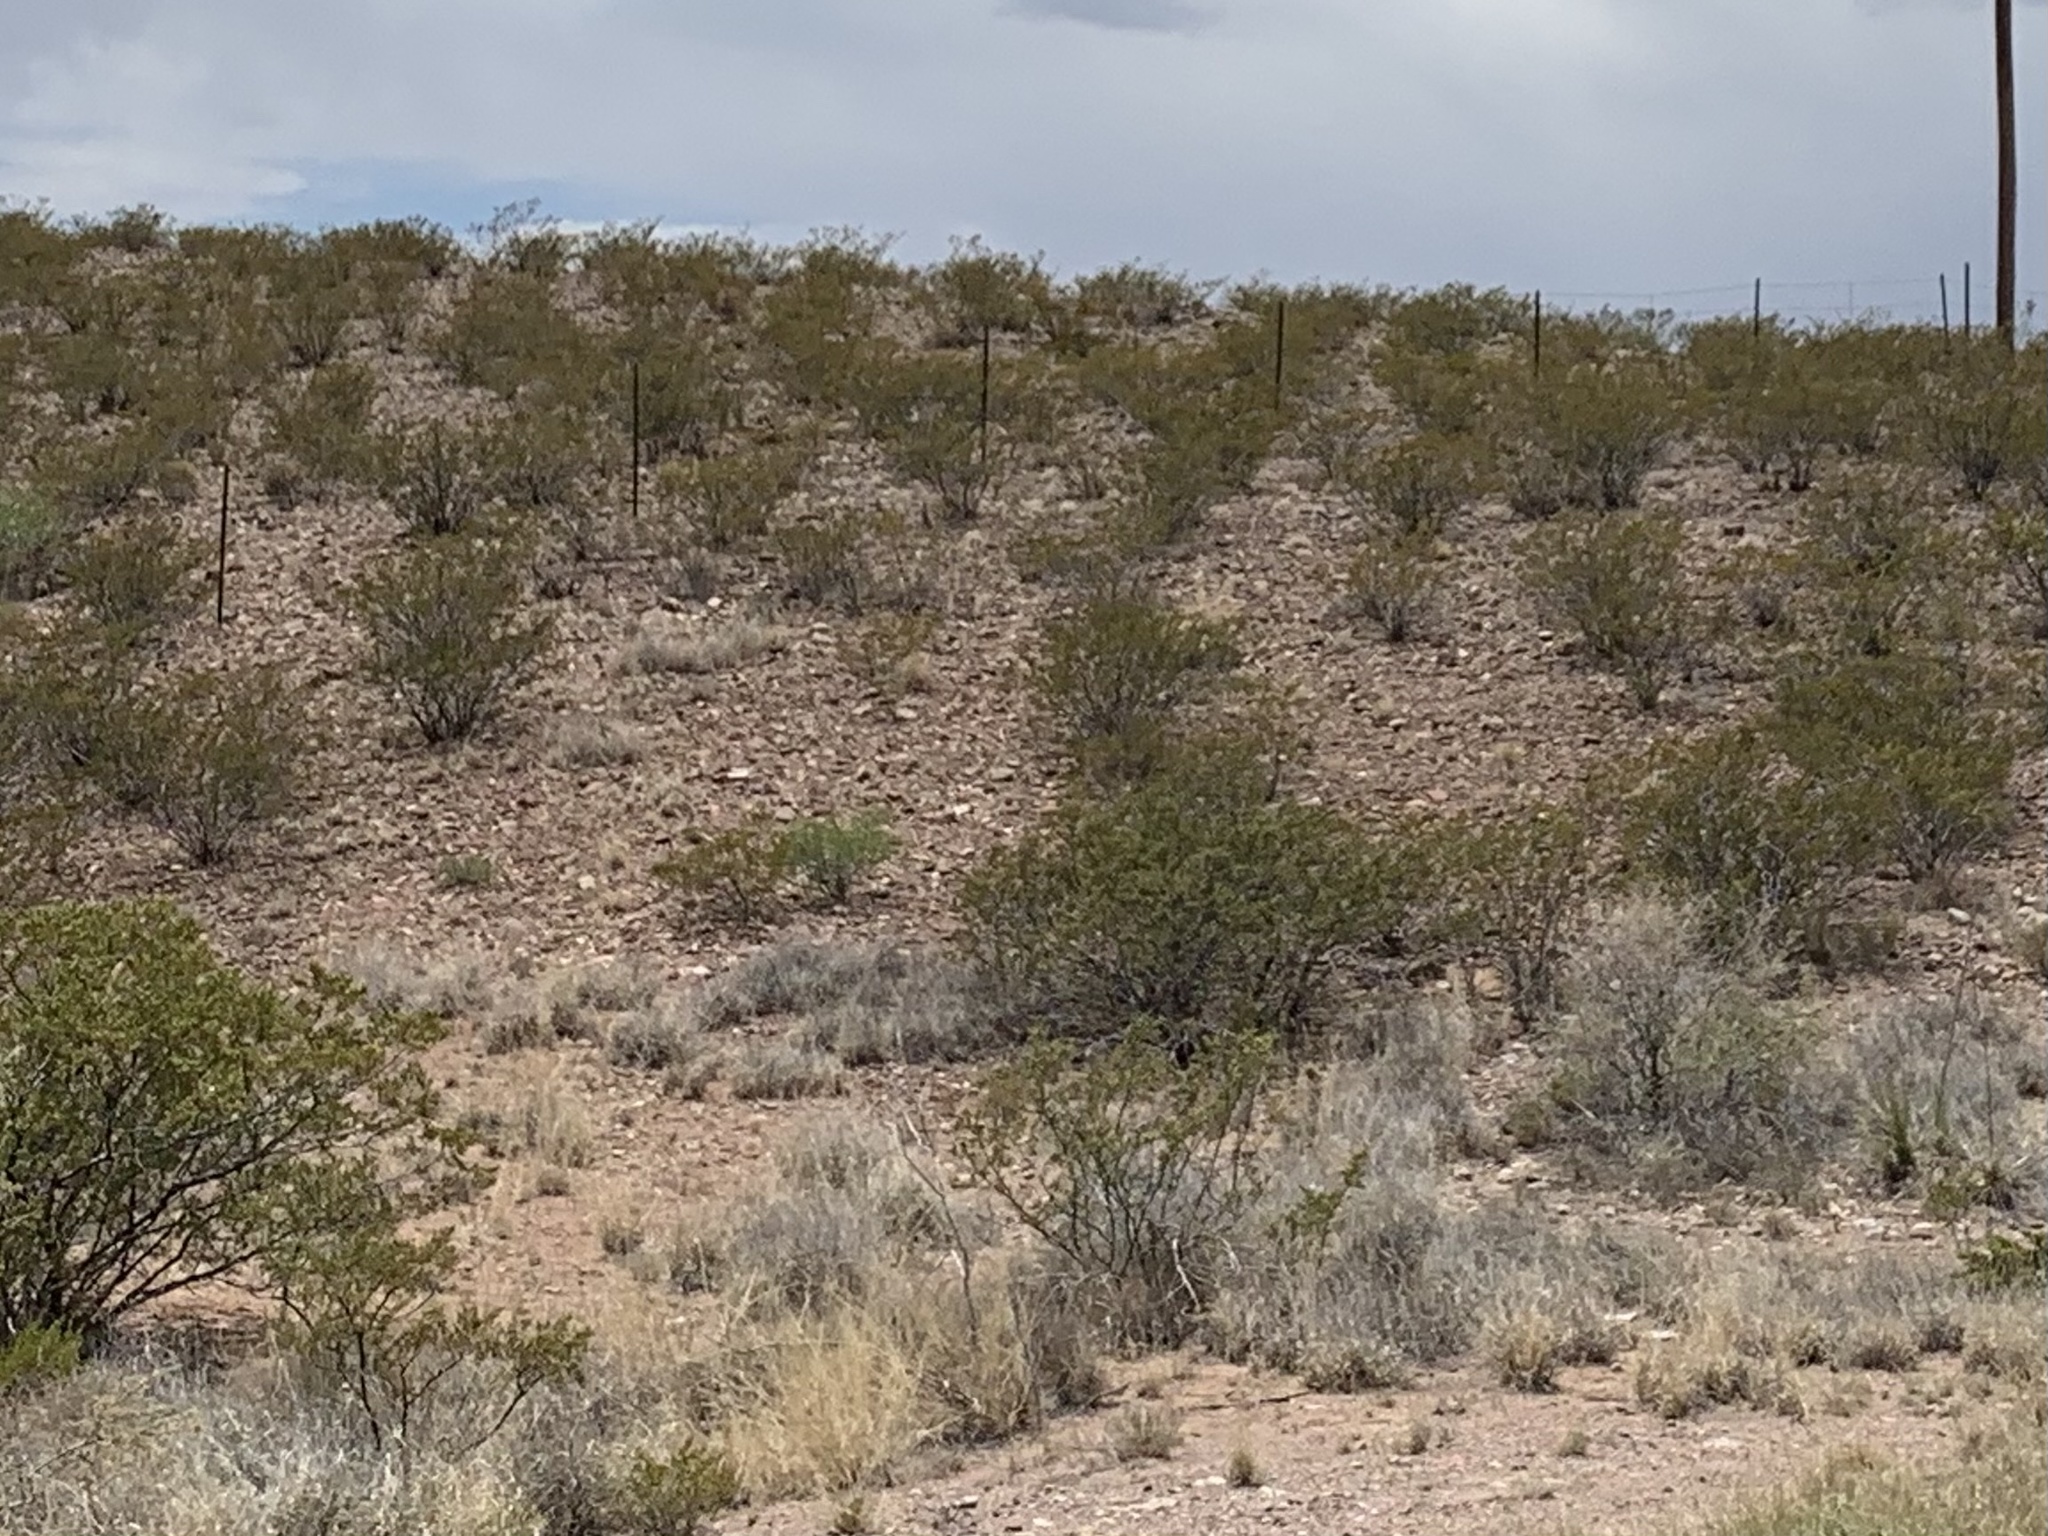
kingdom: Plantae
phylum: Tracheophyta
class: Magnoliopsida
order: Zygophyllales
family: Zygophyllaceae
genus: Larrea
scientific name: Larrea tridentata
